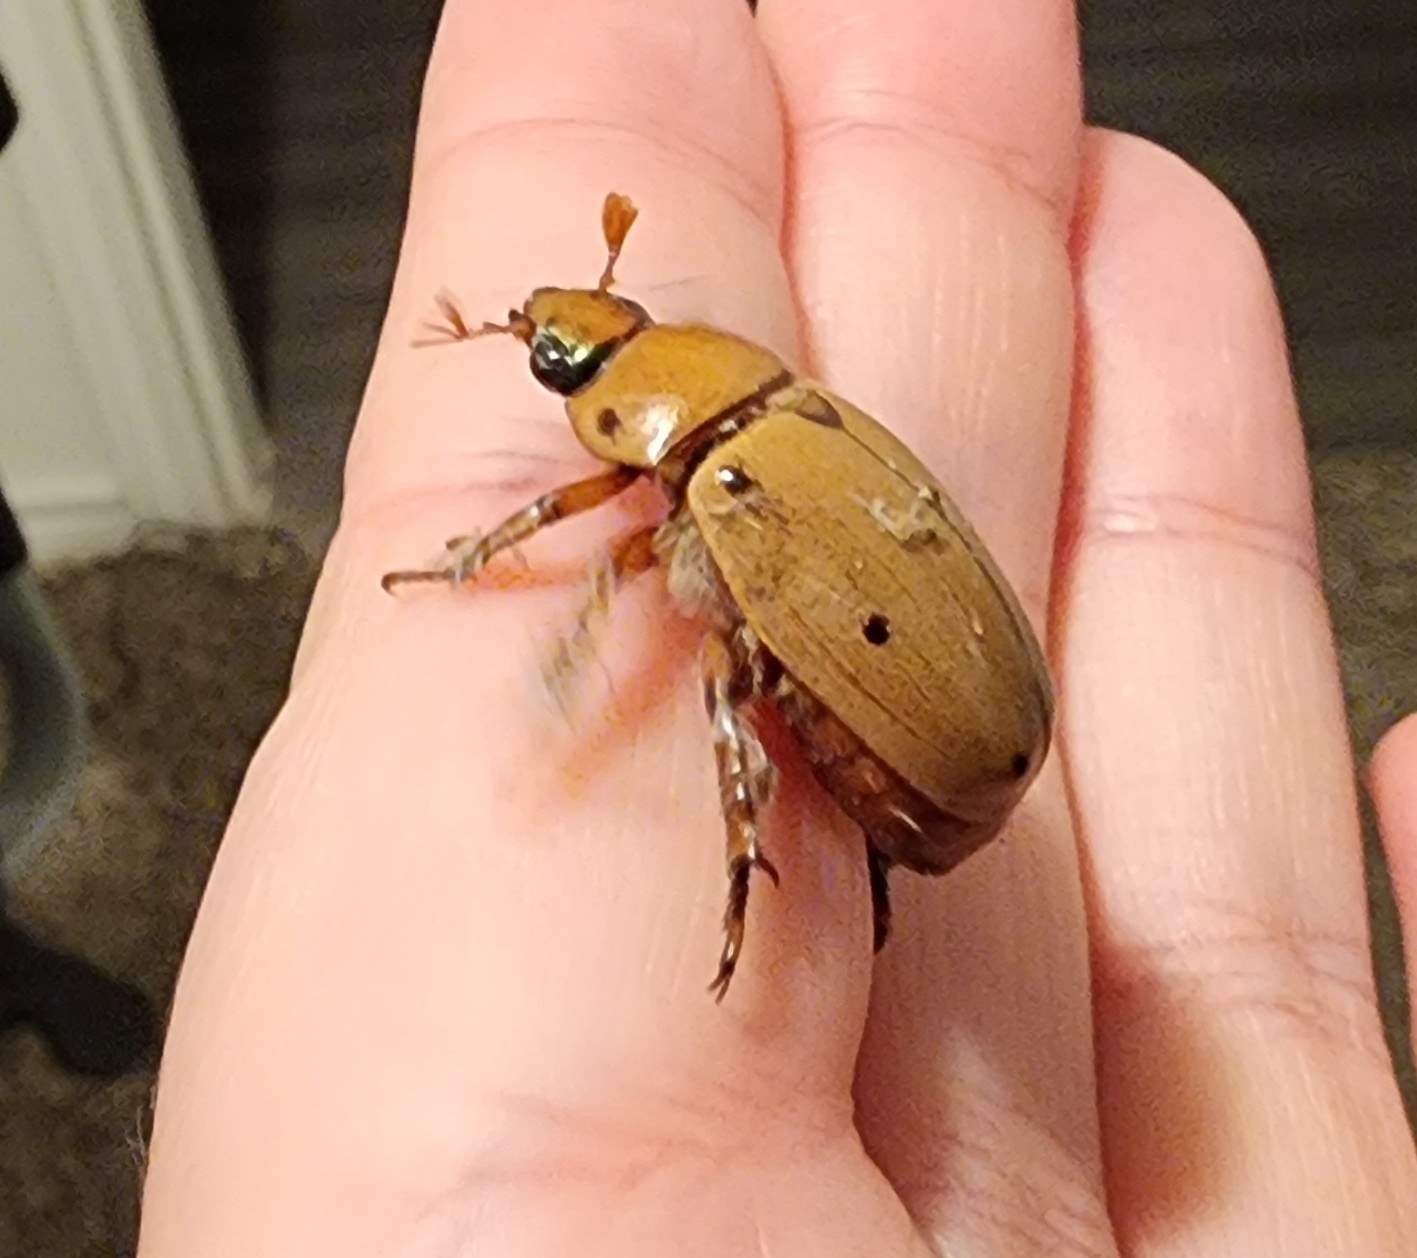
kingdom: Animalia
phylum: Arthropoda
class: Insecta
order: Coleoptera
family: Scarabaeidae
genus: Pelidnota
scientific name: Pelidnota punctata
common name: Grapevine beetle
